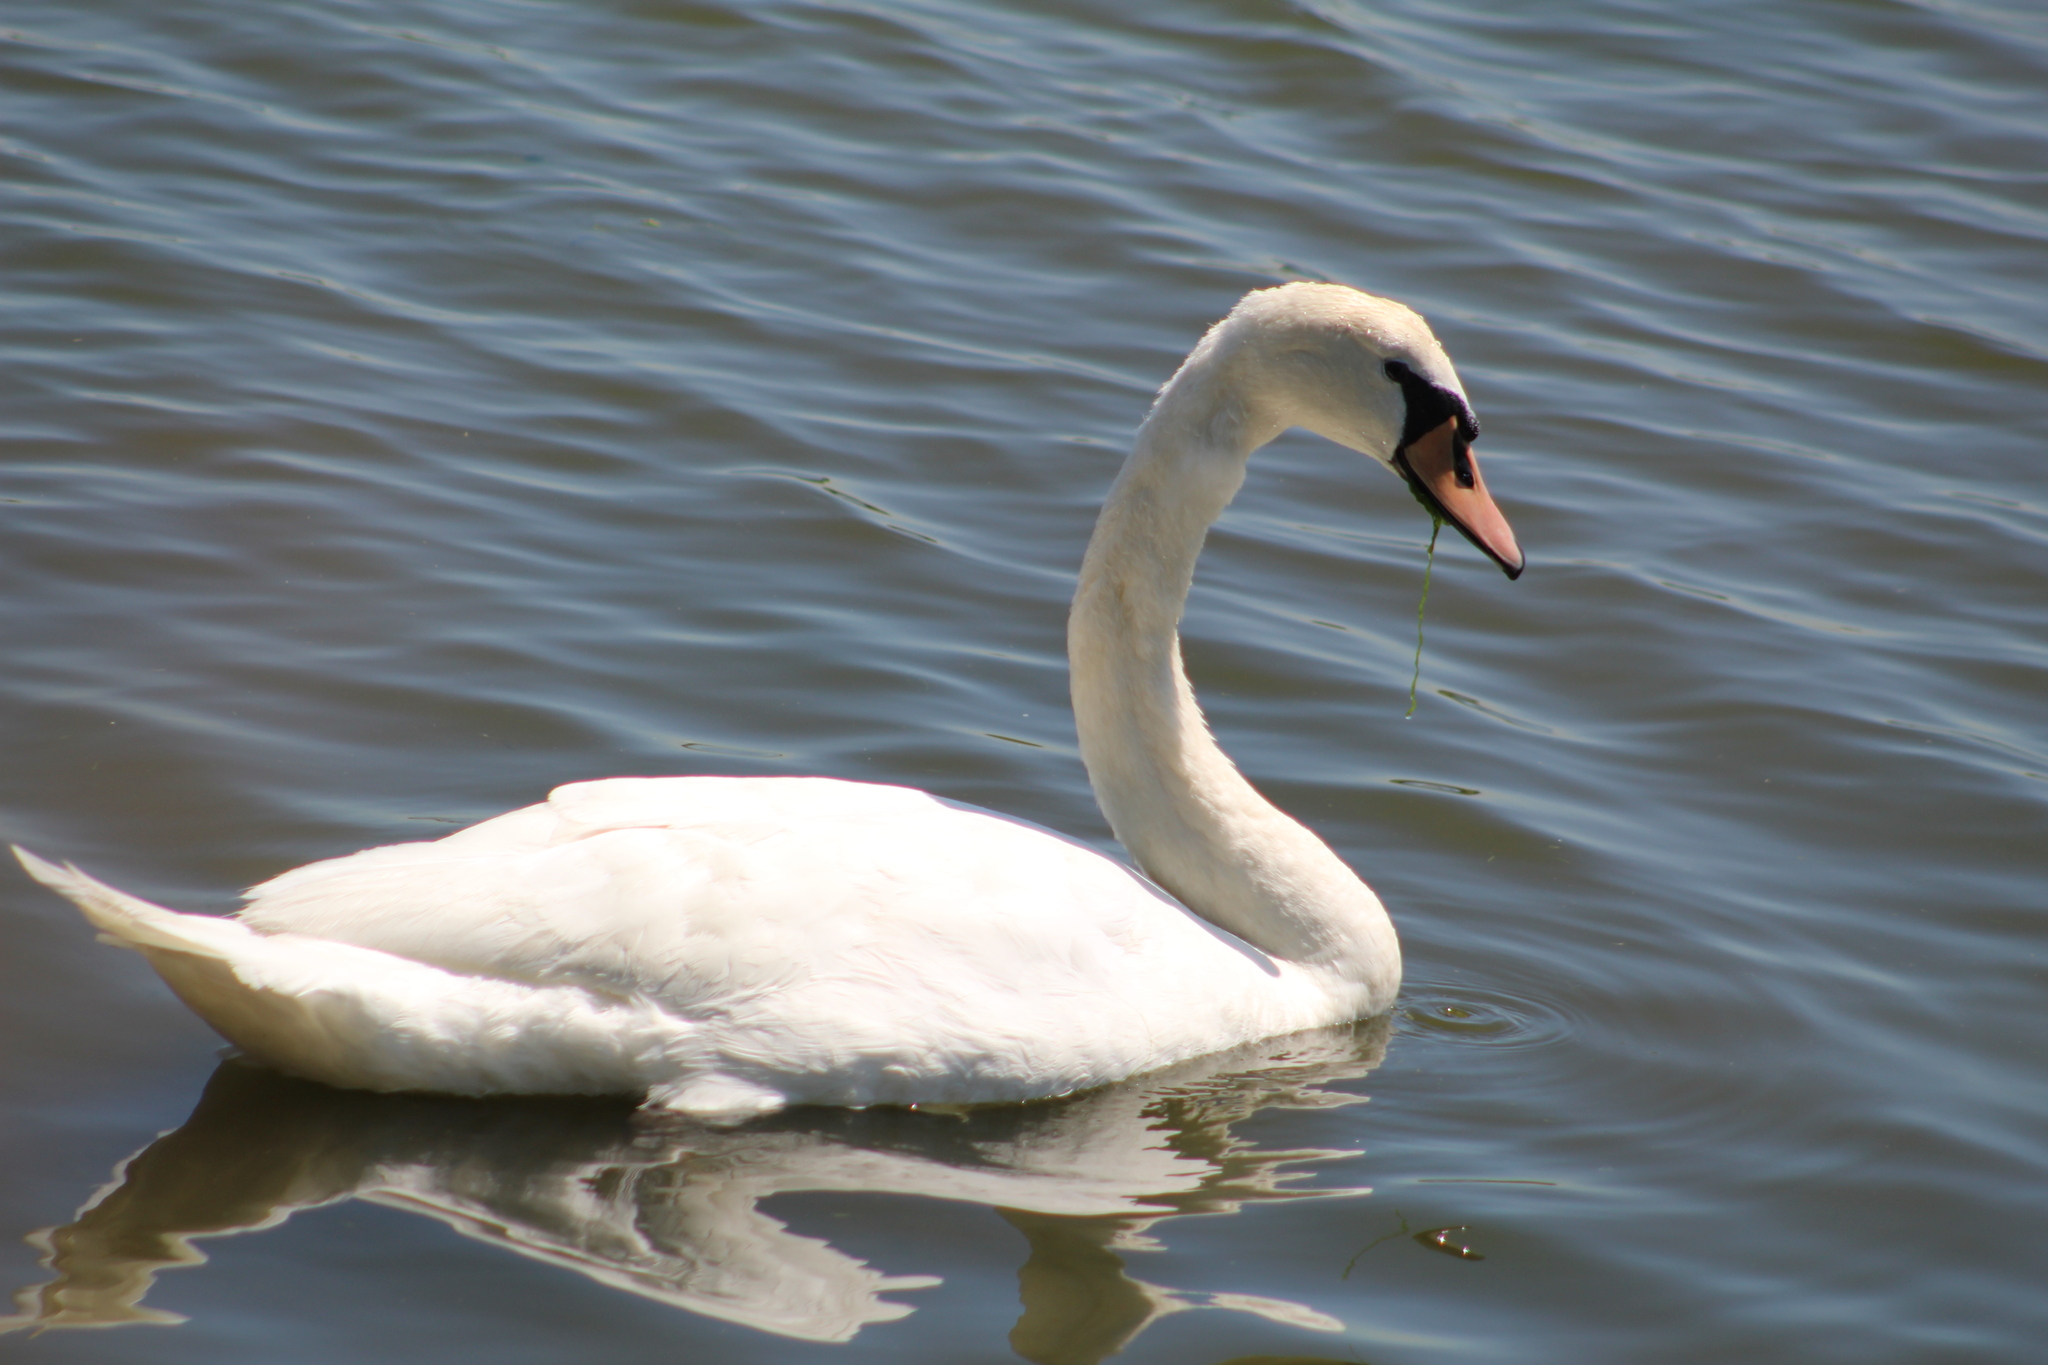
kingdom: Animalia
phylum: Chordata
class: Aves
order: Anseriformes
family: Anatidae
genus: Cygnus
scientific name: Cygnus olor
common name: Mute swan
